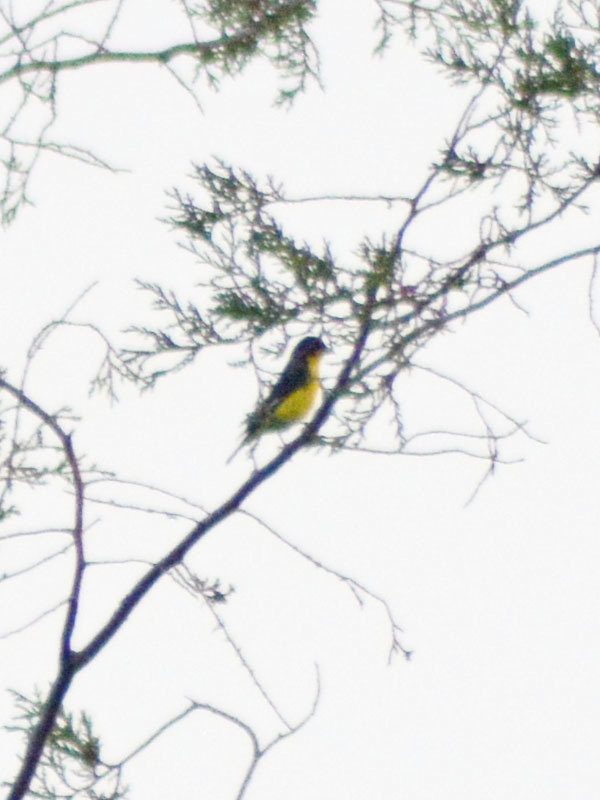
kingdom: Animalia
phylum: Chordata
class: Aves
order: Passeriformes
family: Fringillidae
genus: Spinus
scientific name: Spinus psaltria
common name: Lesser goldfinch
